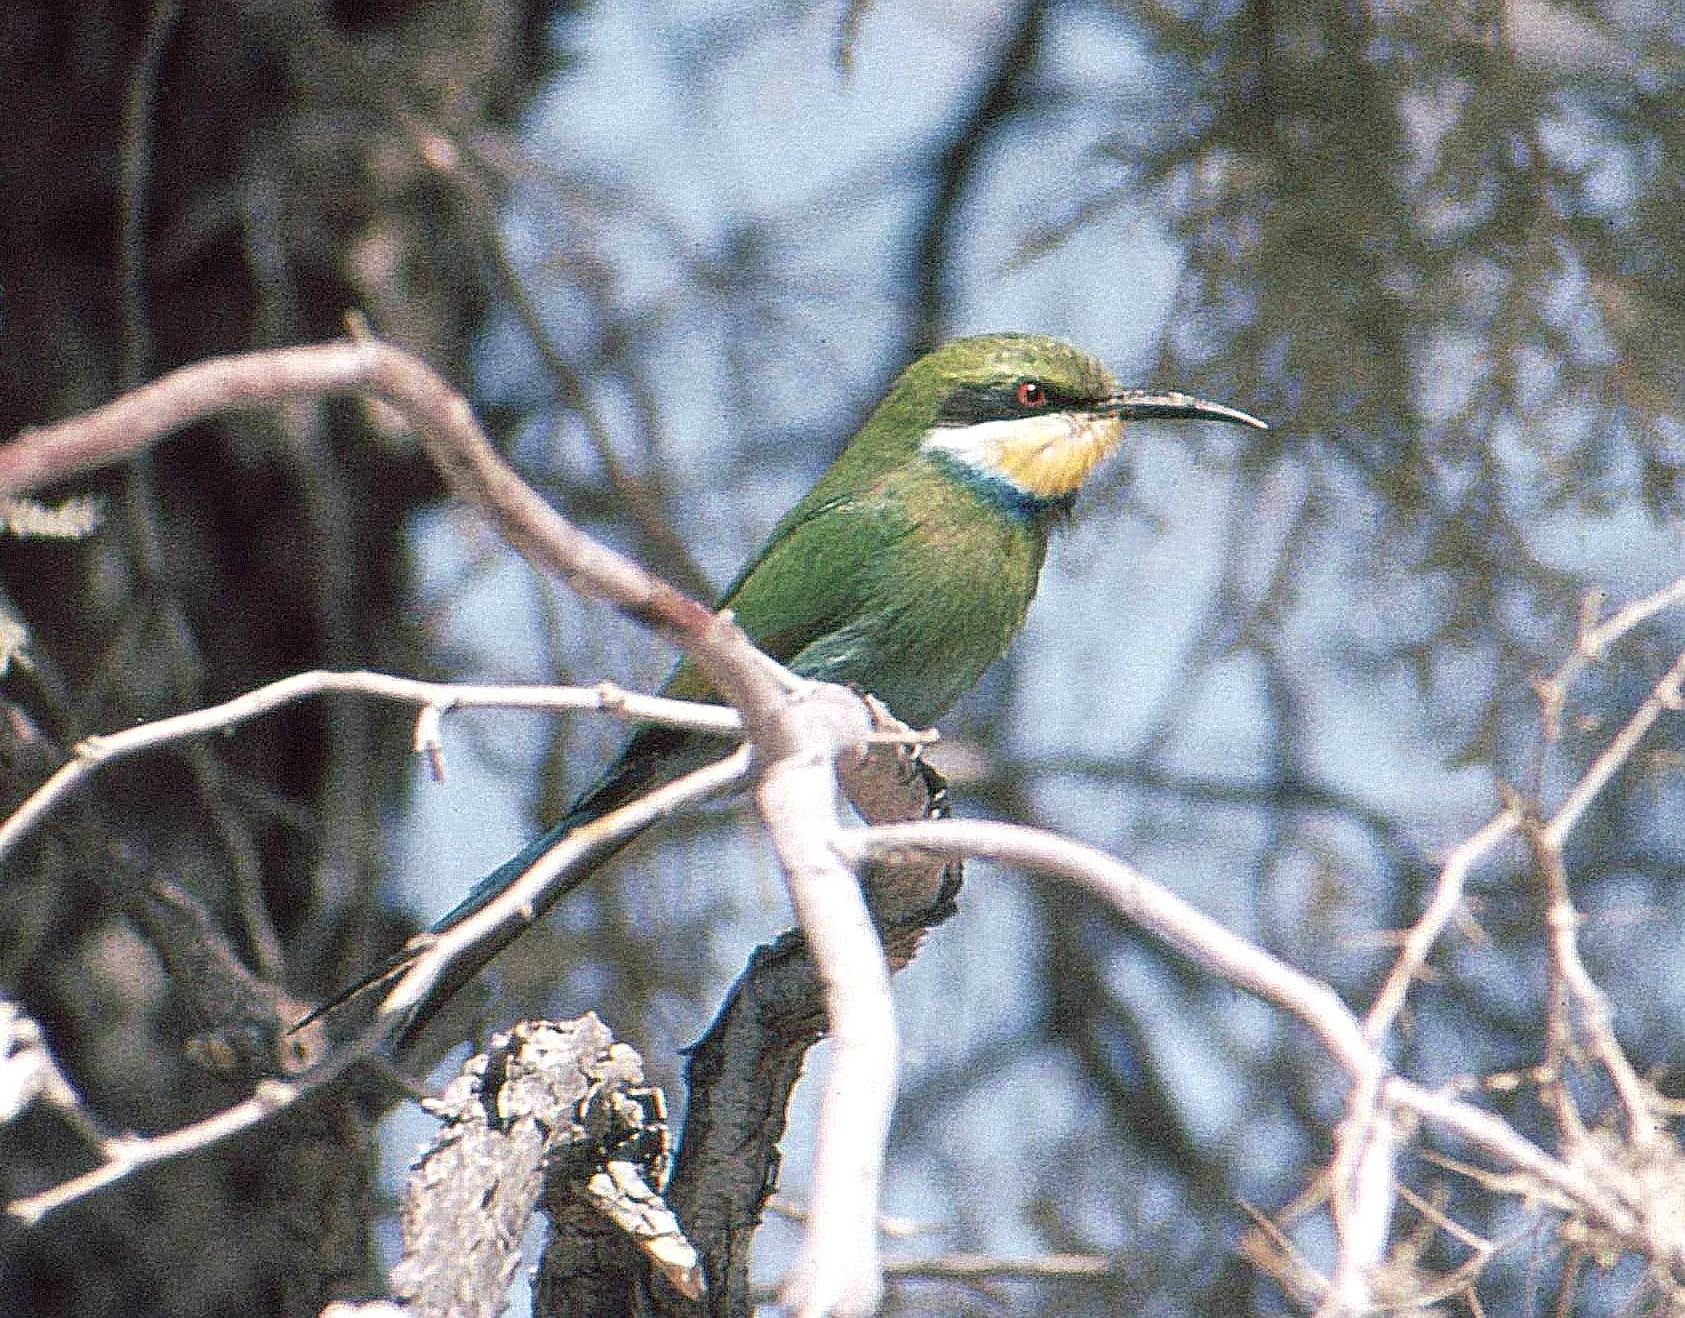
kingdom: Animalia
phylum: Chordata
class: Aves
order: Coraciiformes
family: Meropidae
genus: Merops
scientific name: Merops hirundineus
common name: Swallow-tailed bee-eater
